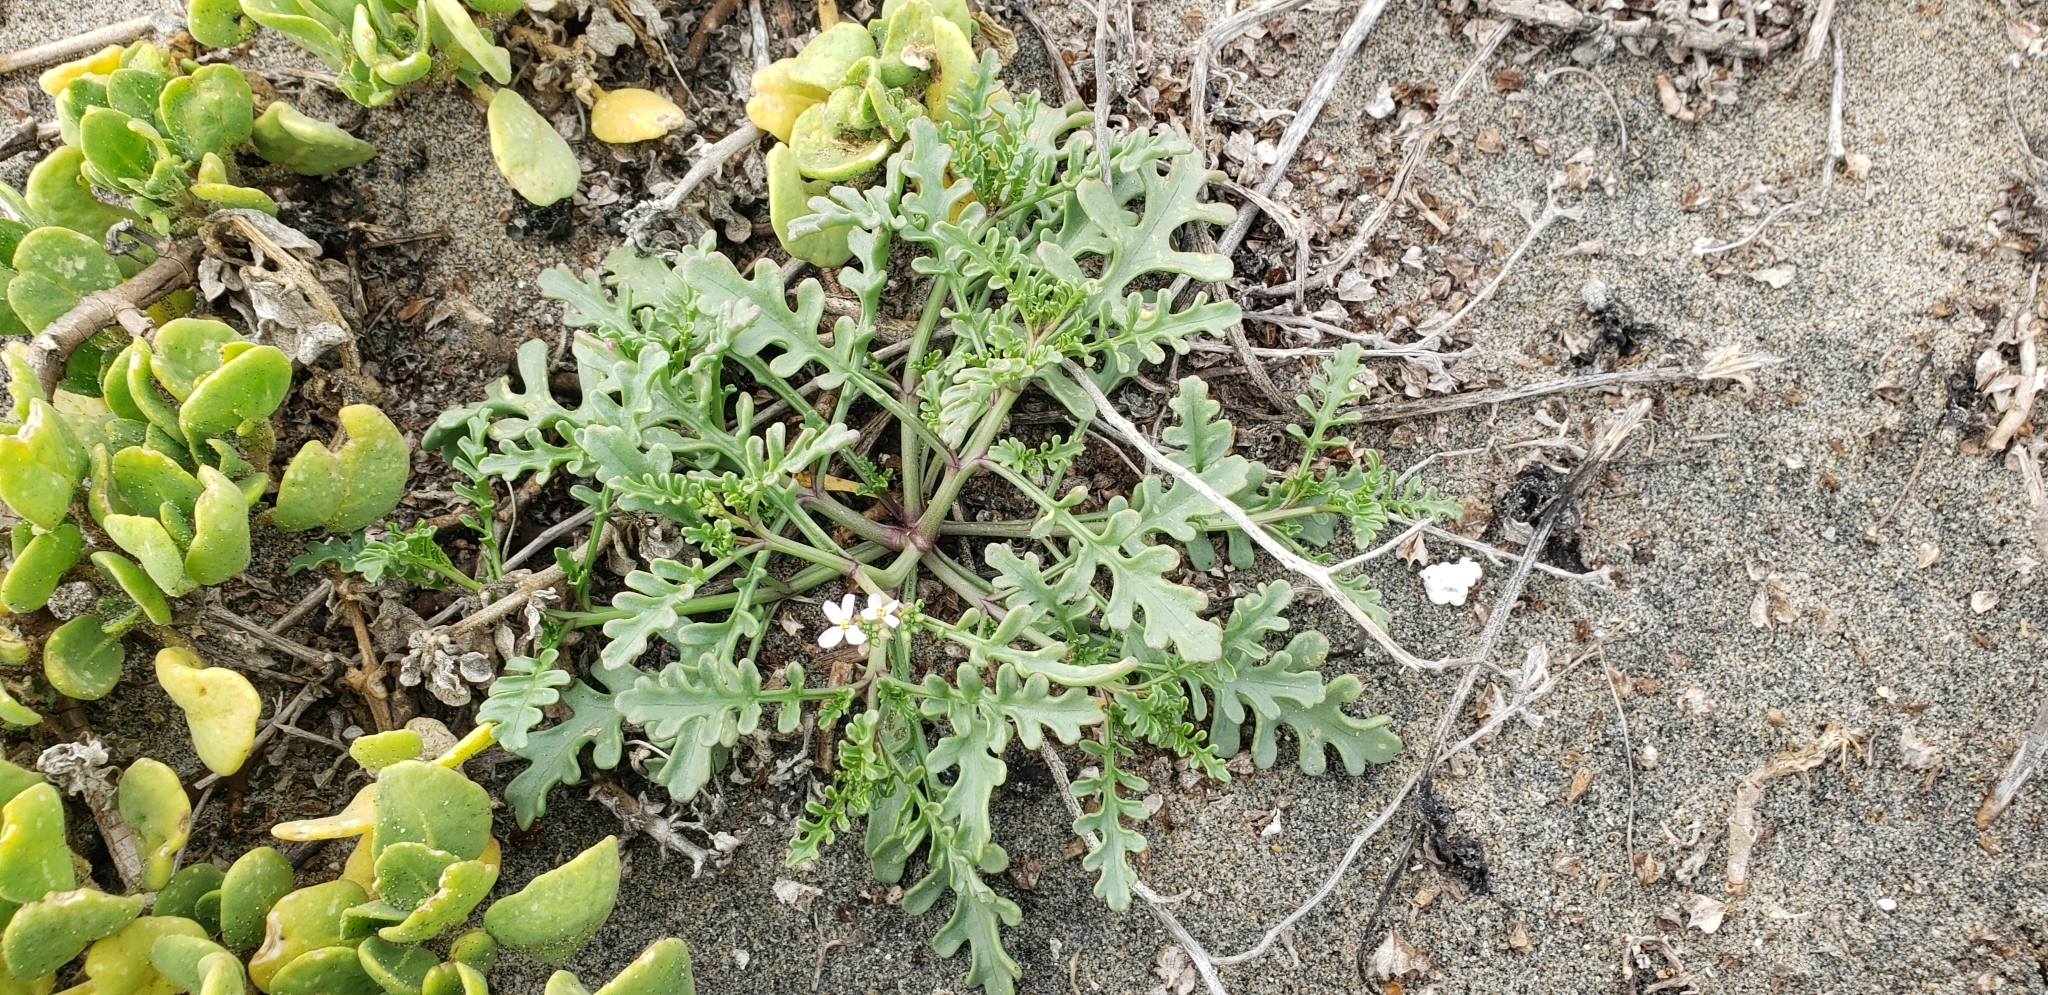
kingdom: Plantae
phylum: Tracheophyta
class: Magnoliopsida
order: Brassicales
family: Brassicaceae
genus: Cakile
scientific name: Cakile maritima
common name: Sea rocket
